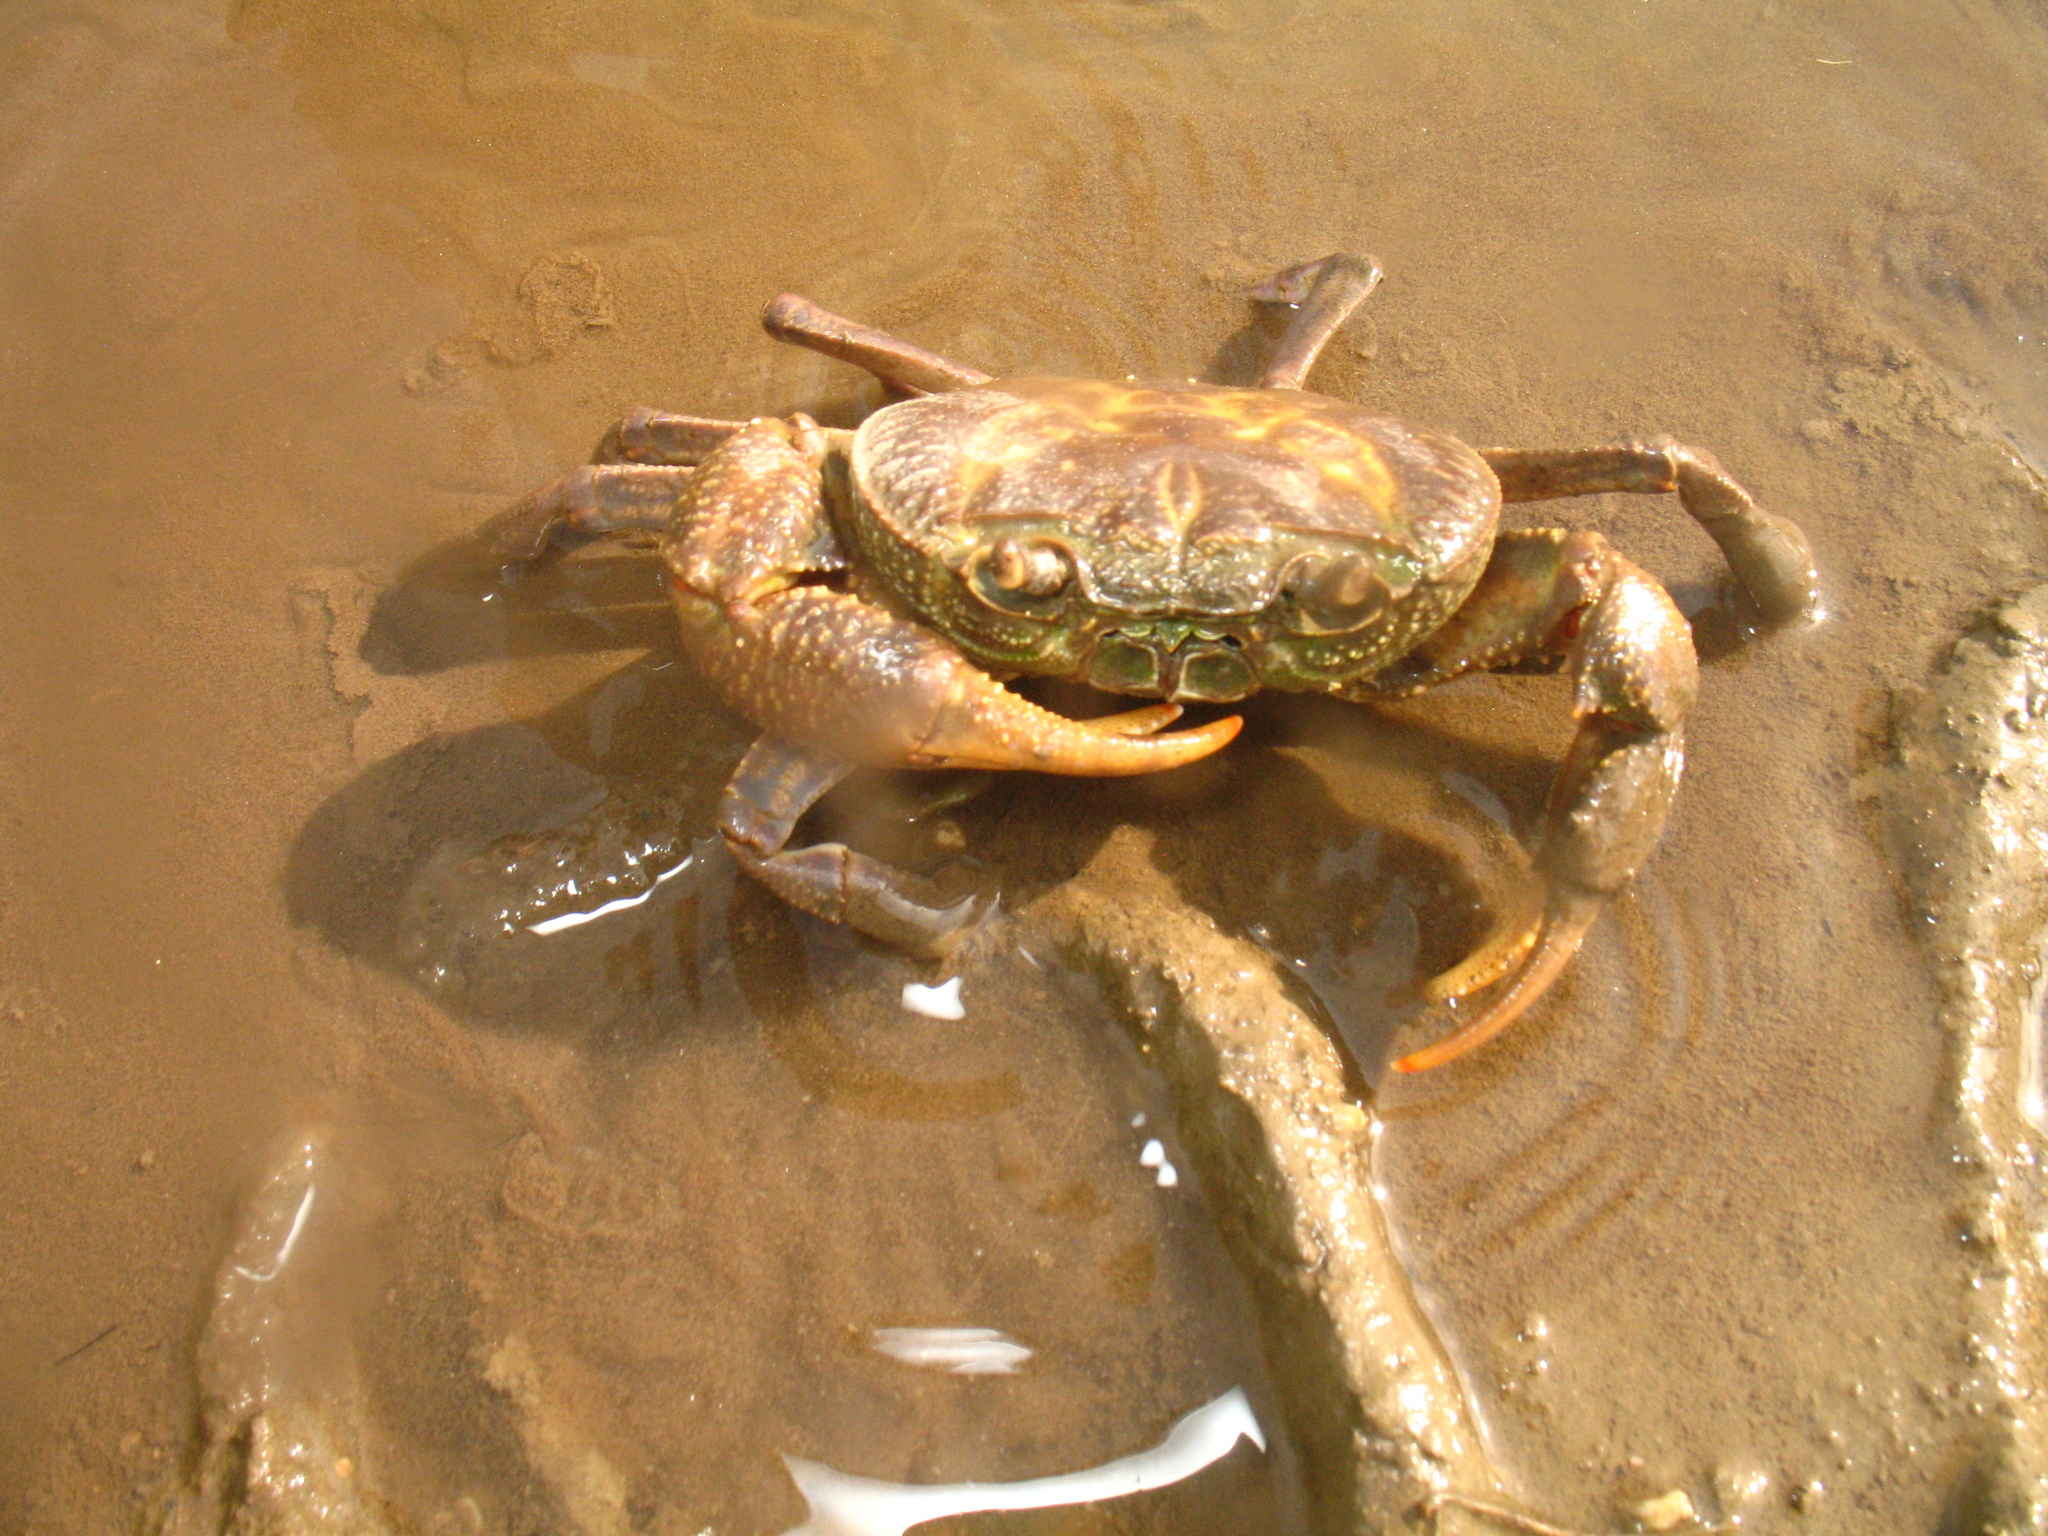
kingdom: Animalia
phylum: Arthropoda
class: Malacostraca
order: Decapoda
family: Potamidae
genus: Potamon
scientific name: Potamon
